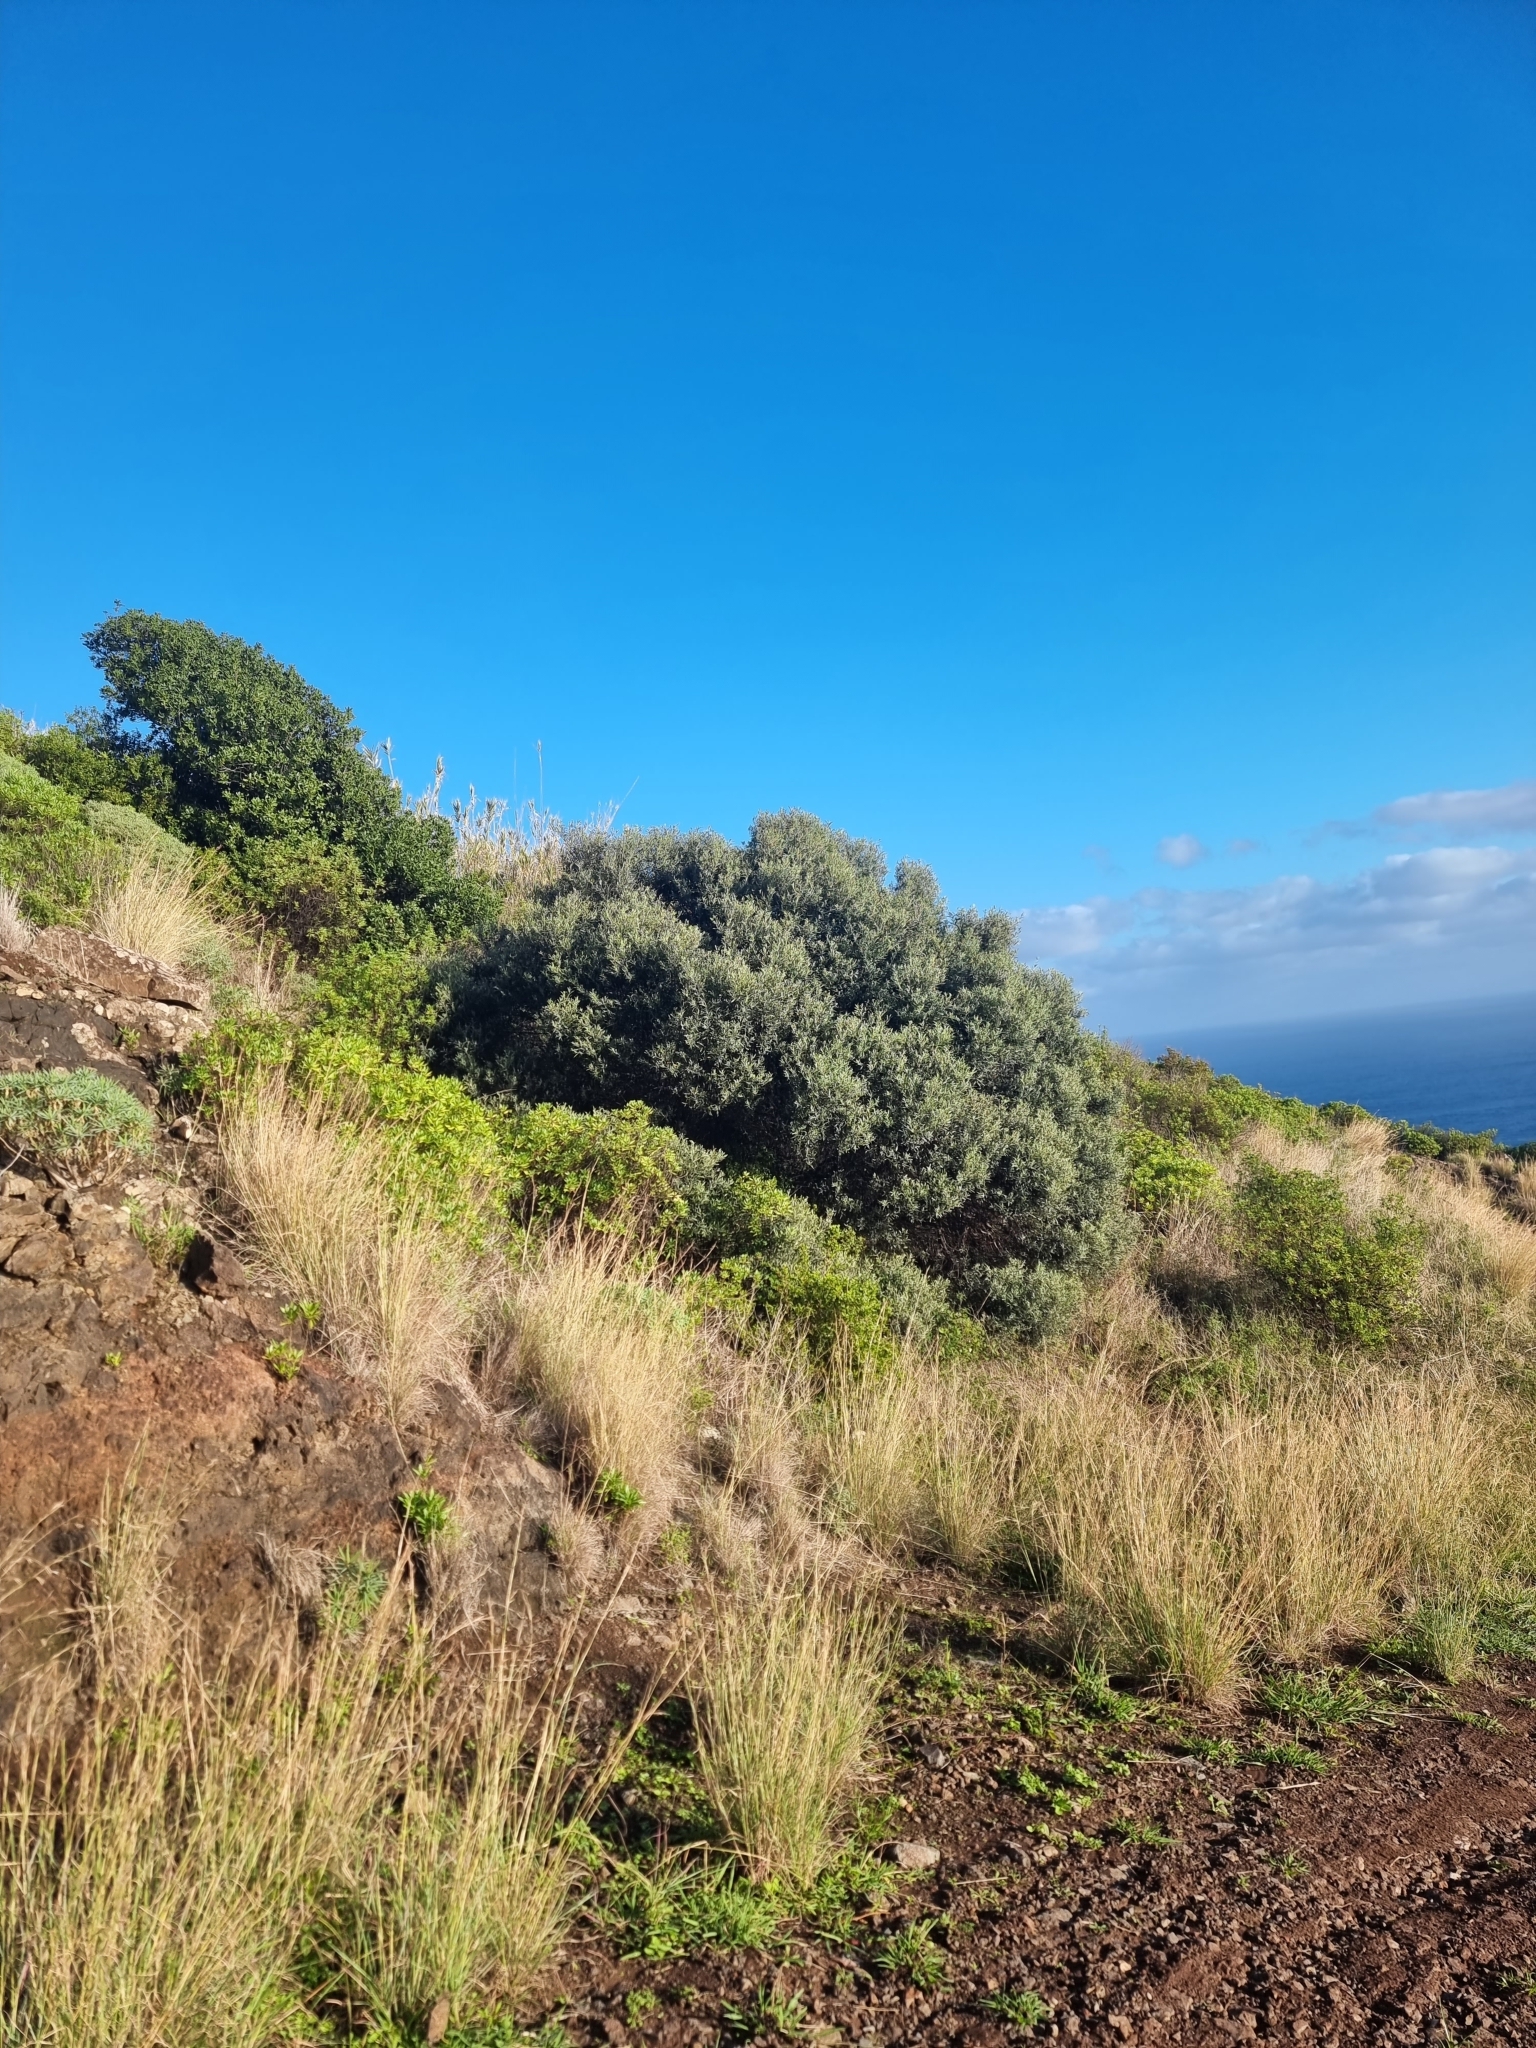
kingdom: Plantae
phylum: Tracheophyta
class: Magnoliopsida
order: Lamiales
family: Oleaceae
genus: Olea
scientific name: Olea europaea
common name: Olive
